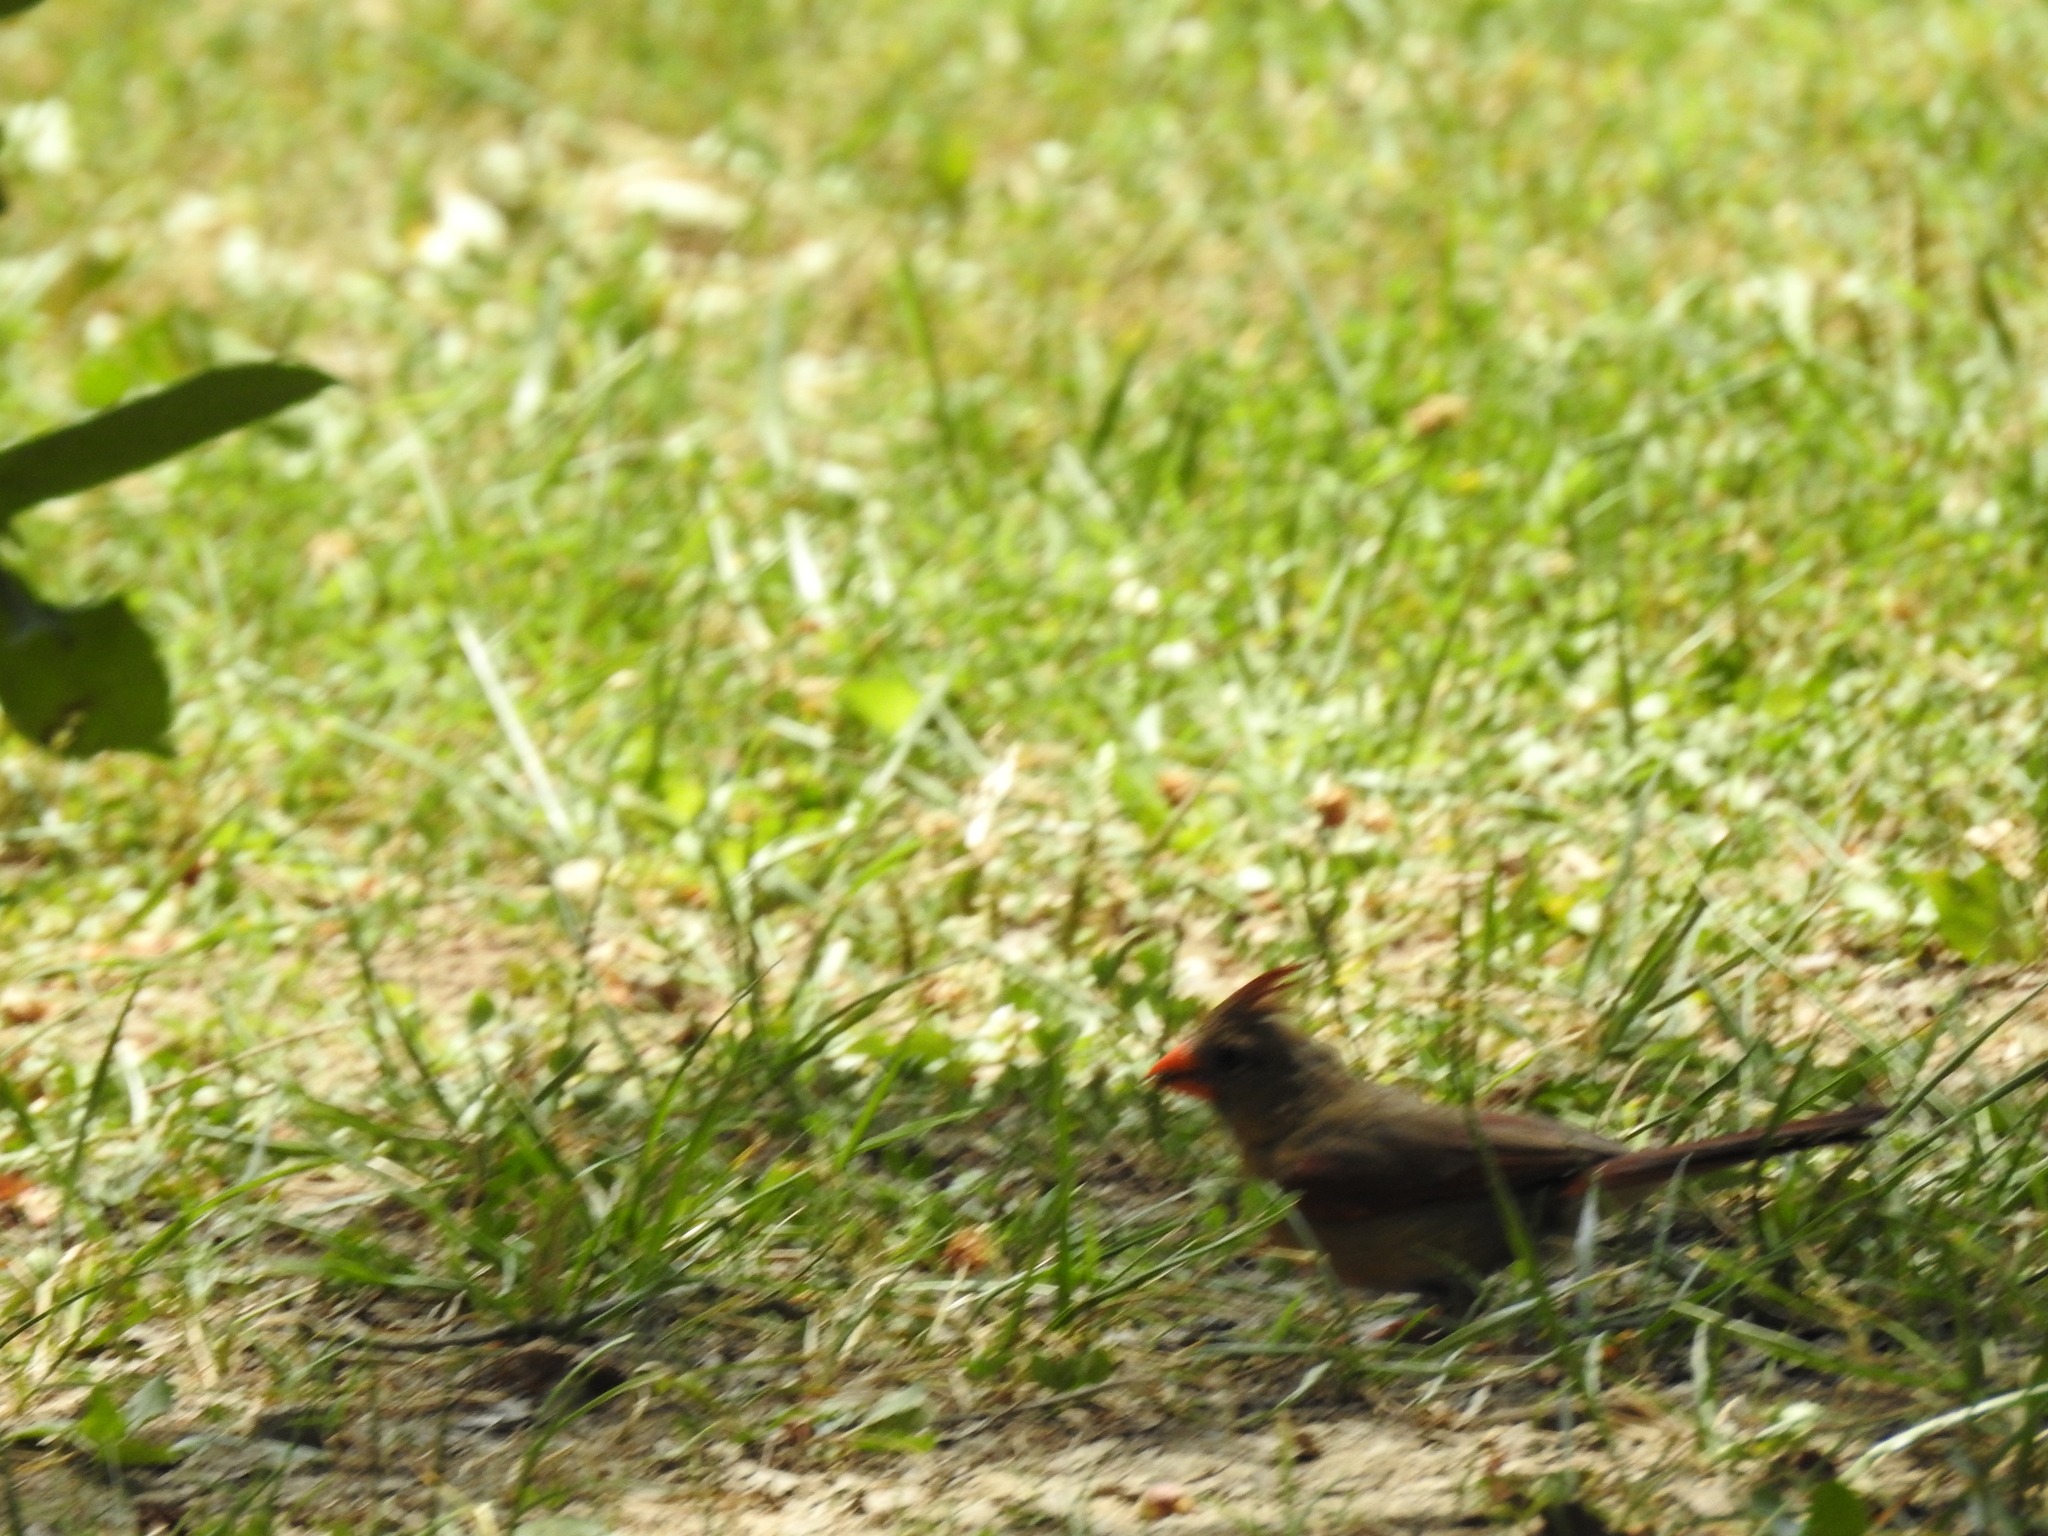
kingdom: Animalia
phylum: Chordata
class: Aves
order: Passeriformes
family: Cardinalidae
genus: Cardinalis
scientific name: Cardinalis cardinalis
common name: Northern cardinal
